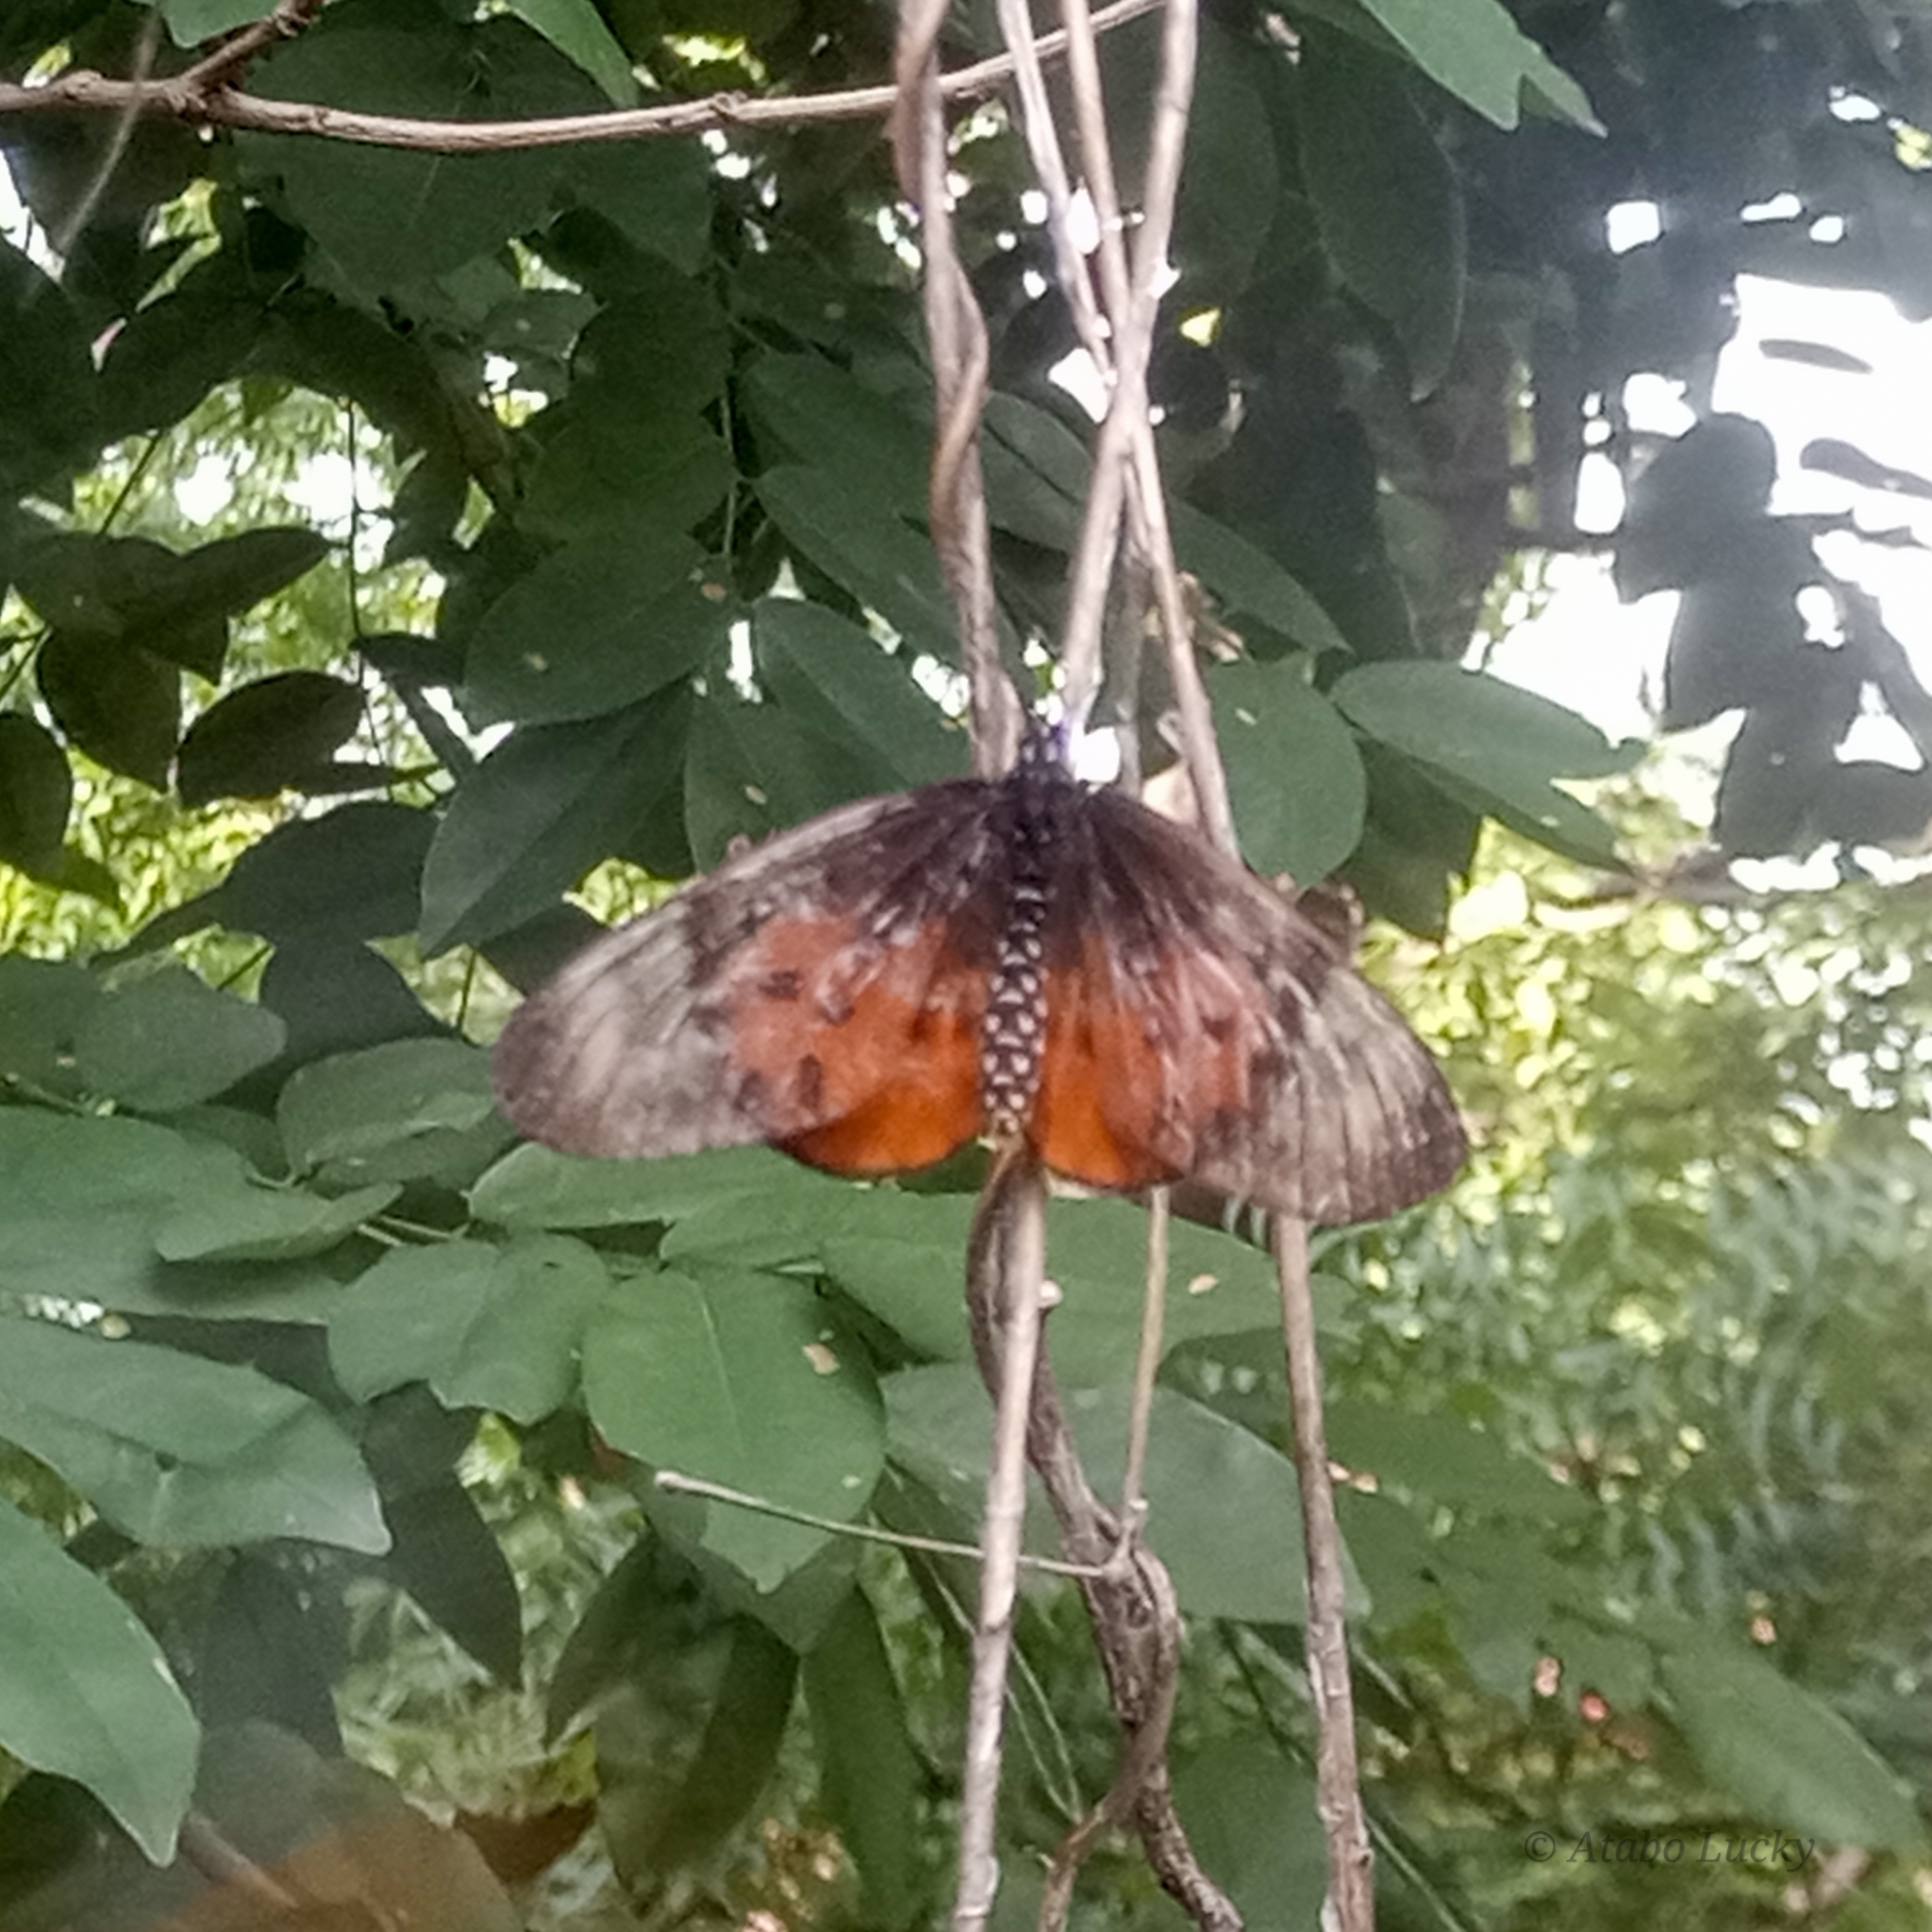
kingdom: Animalia
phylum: Arthropoda
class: Insecta
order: Lepidoptera
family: Nymphalidae
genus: Stephenia
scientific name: Stephenia
